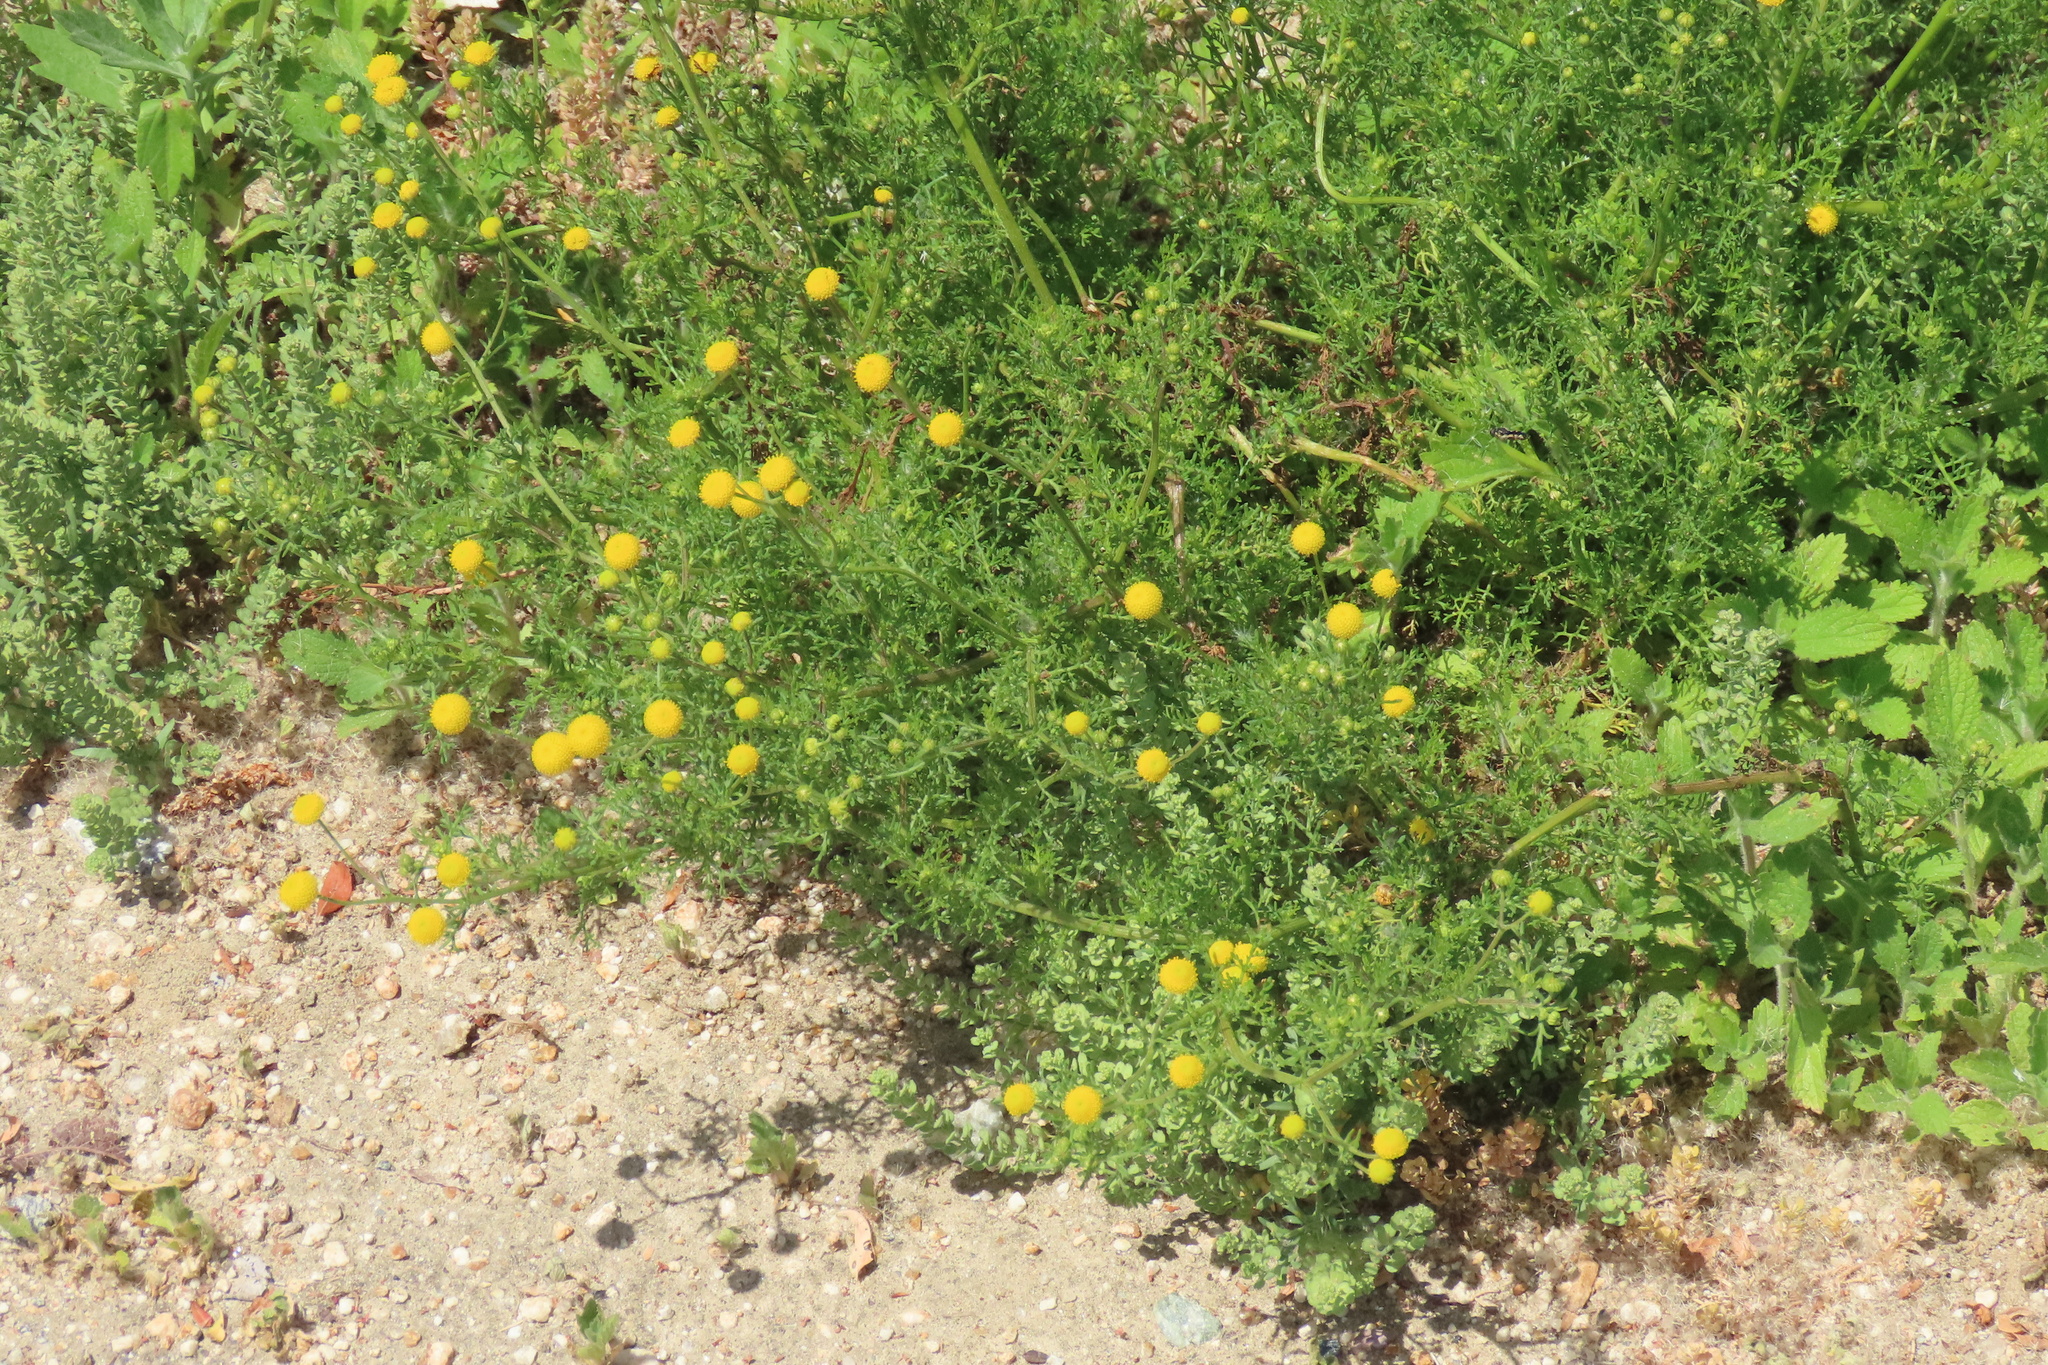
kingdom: Plantae
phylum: Tracheophyta
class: Magnoliopsida
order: Asterales
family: Asteraceae
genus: Cotula
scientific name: Cotula coronopifolia
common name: Buttonweed
